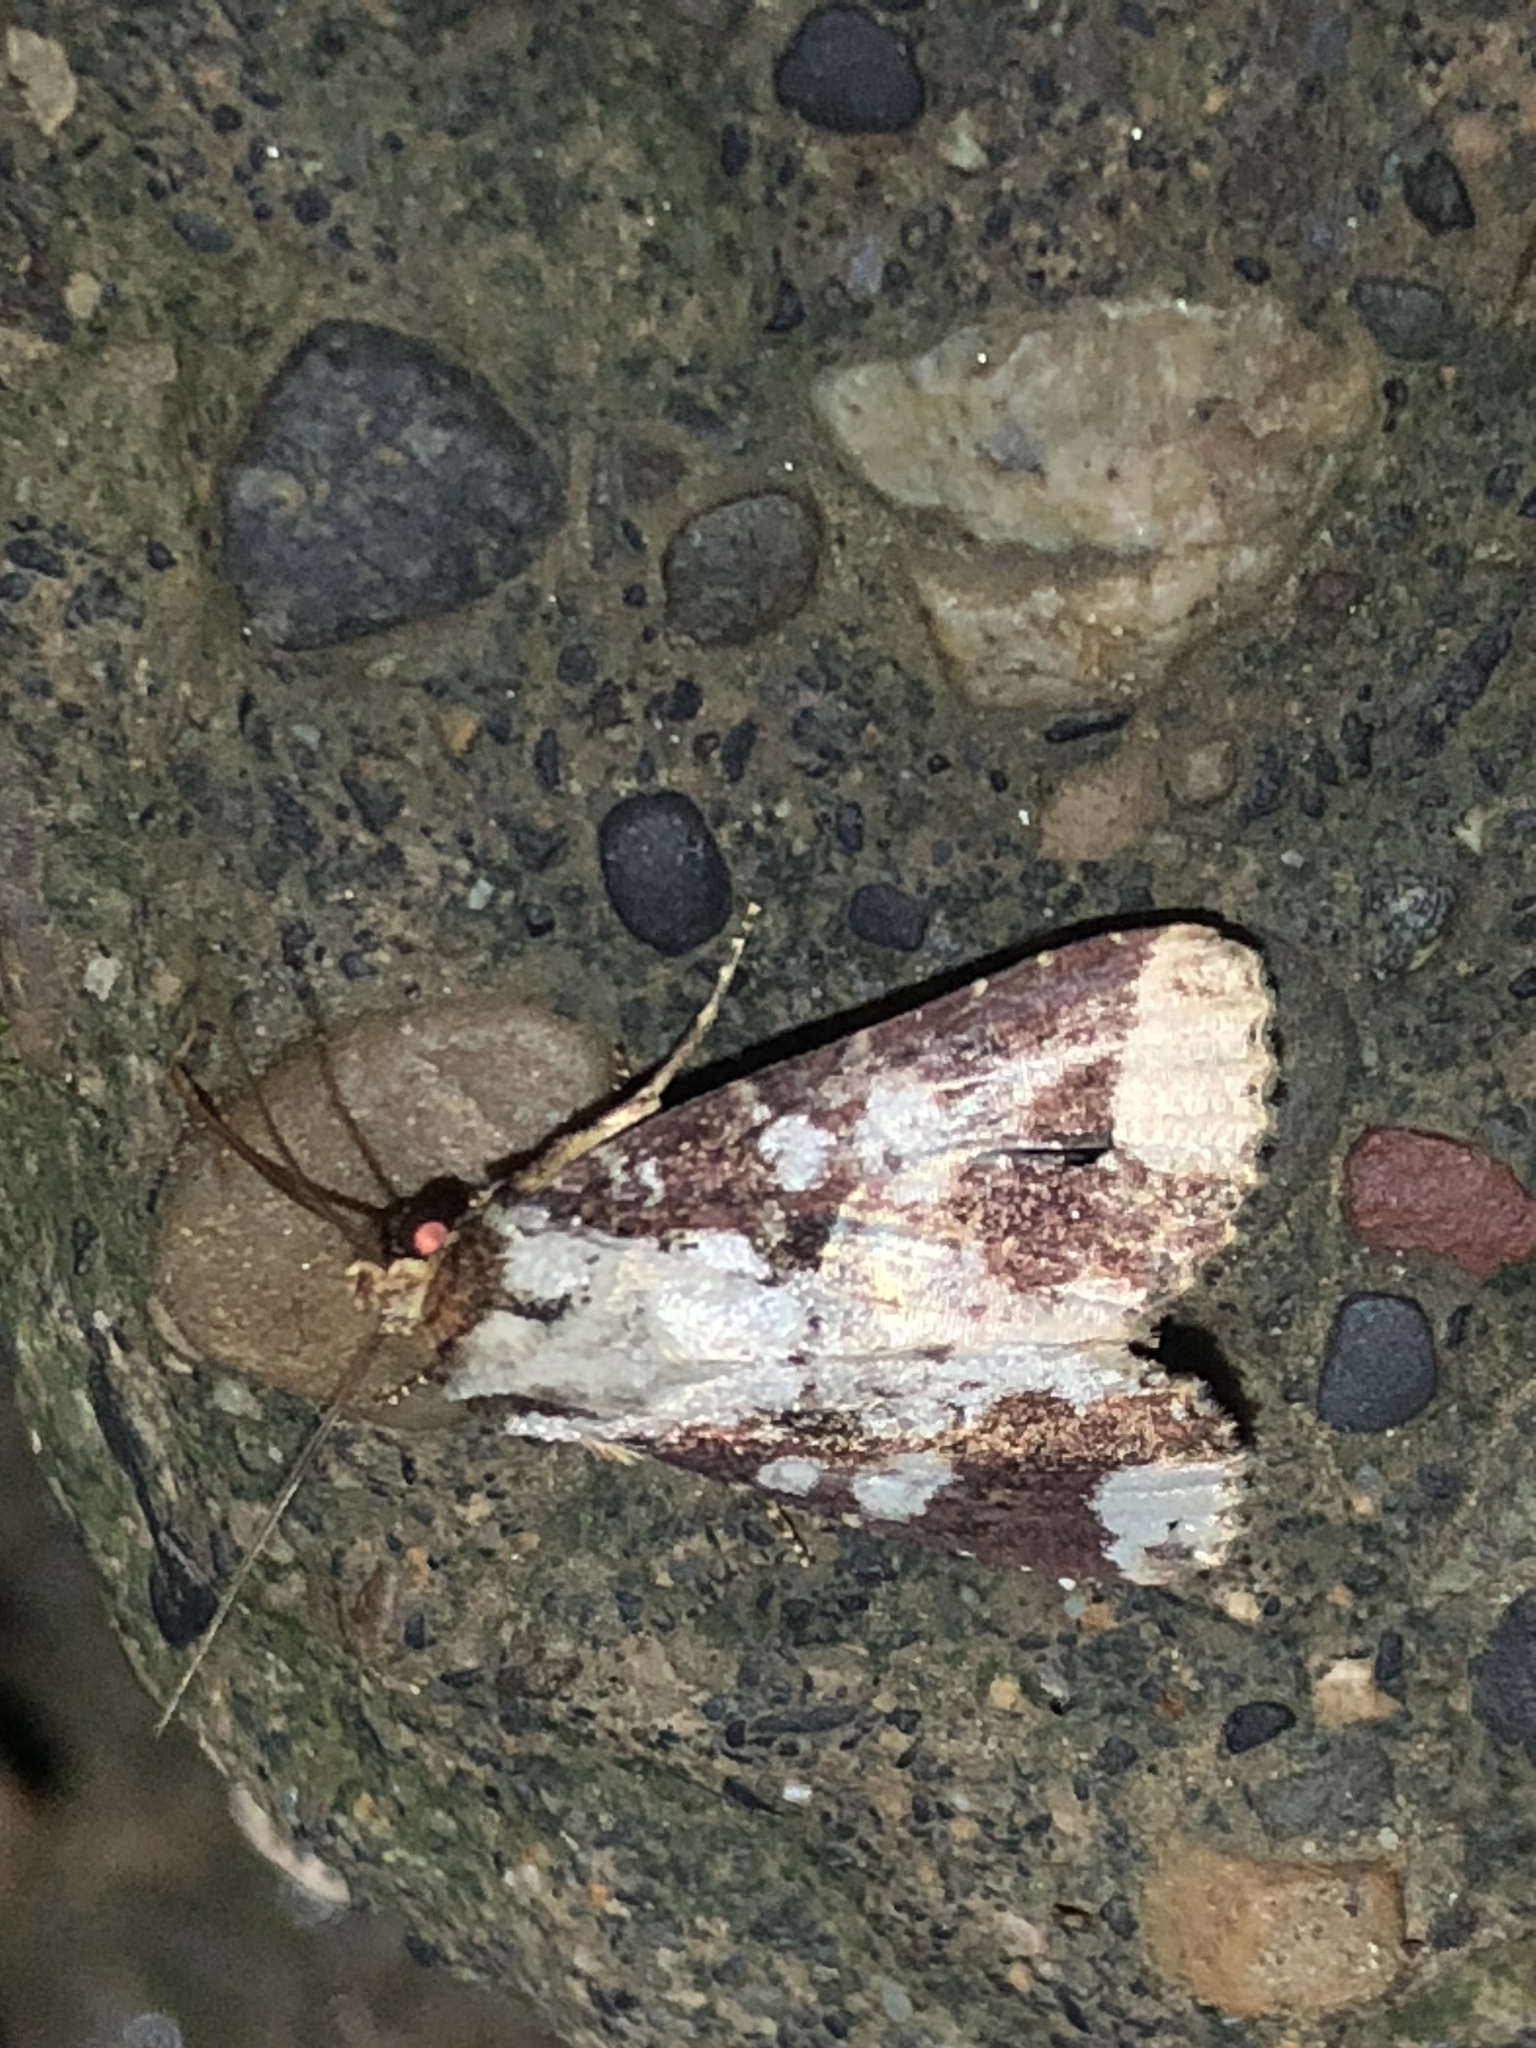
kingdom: Animalia
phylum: Arthropoda
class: Insecta
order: Lepidoptera
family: Noctuidae
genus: Condica
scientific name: Condica mimica
